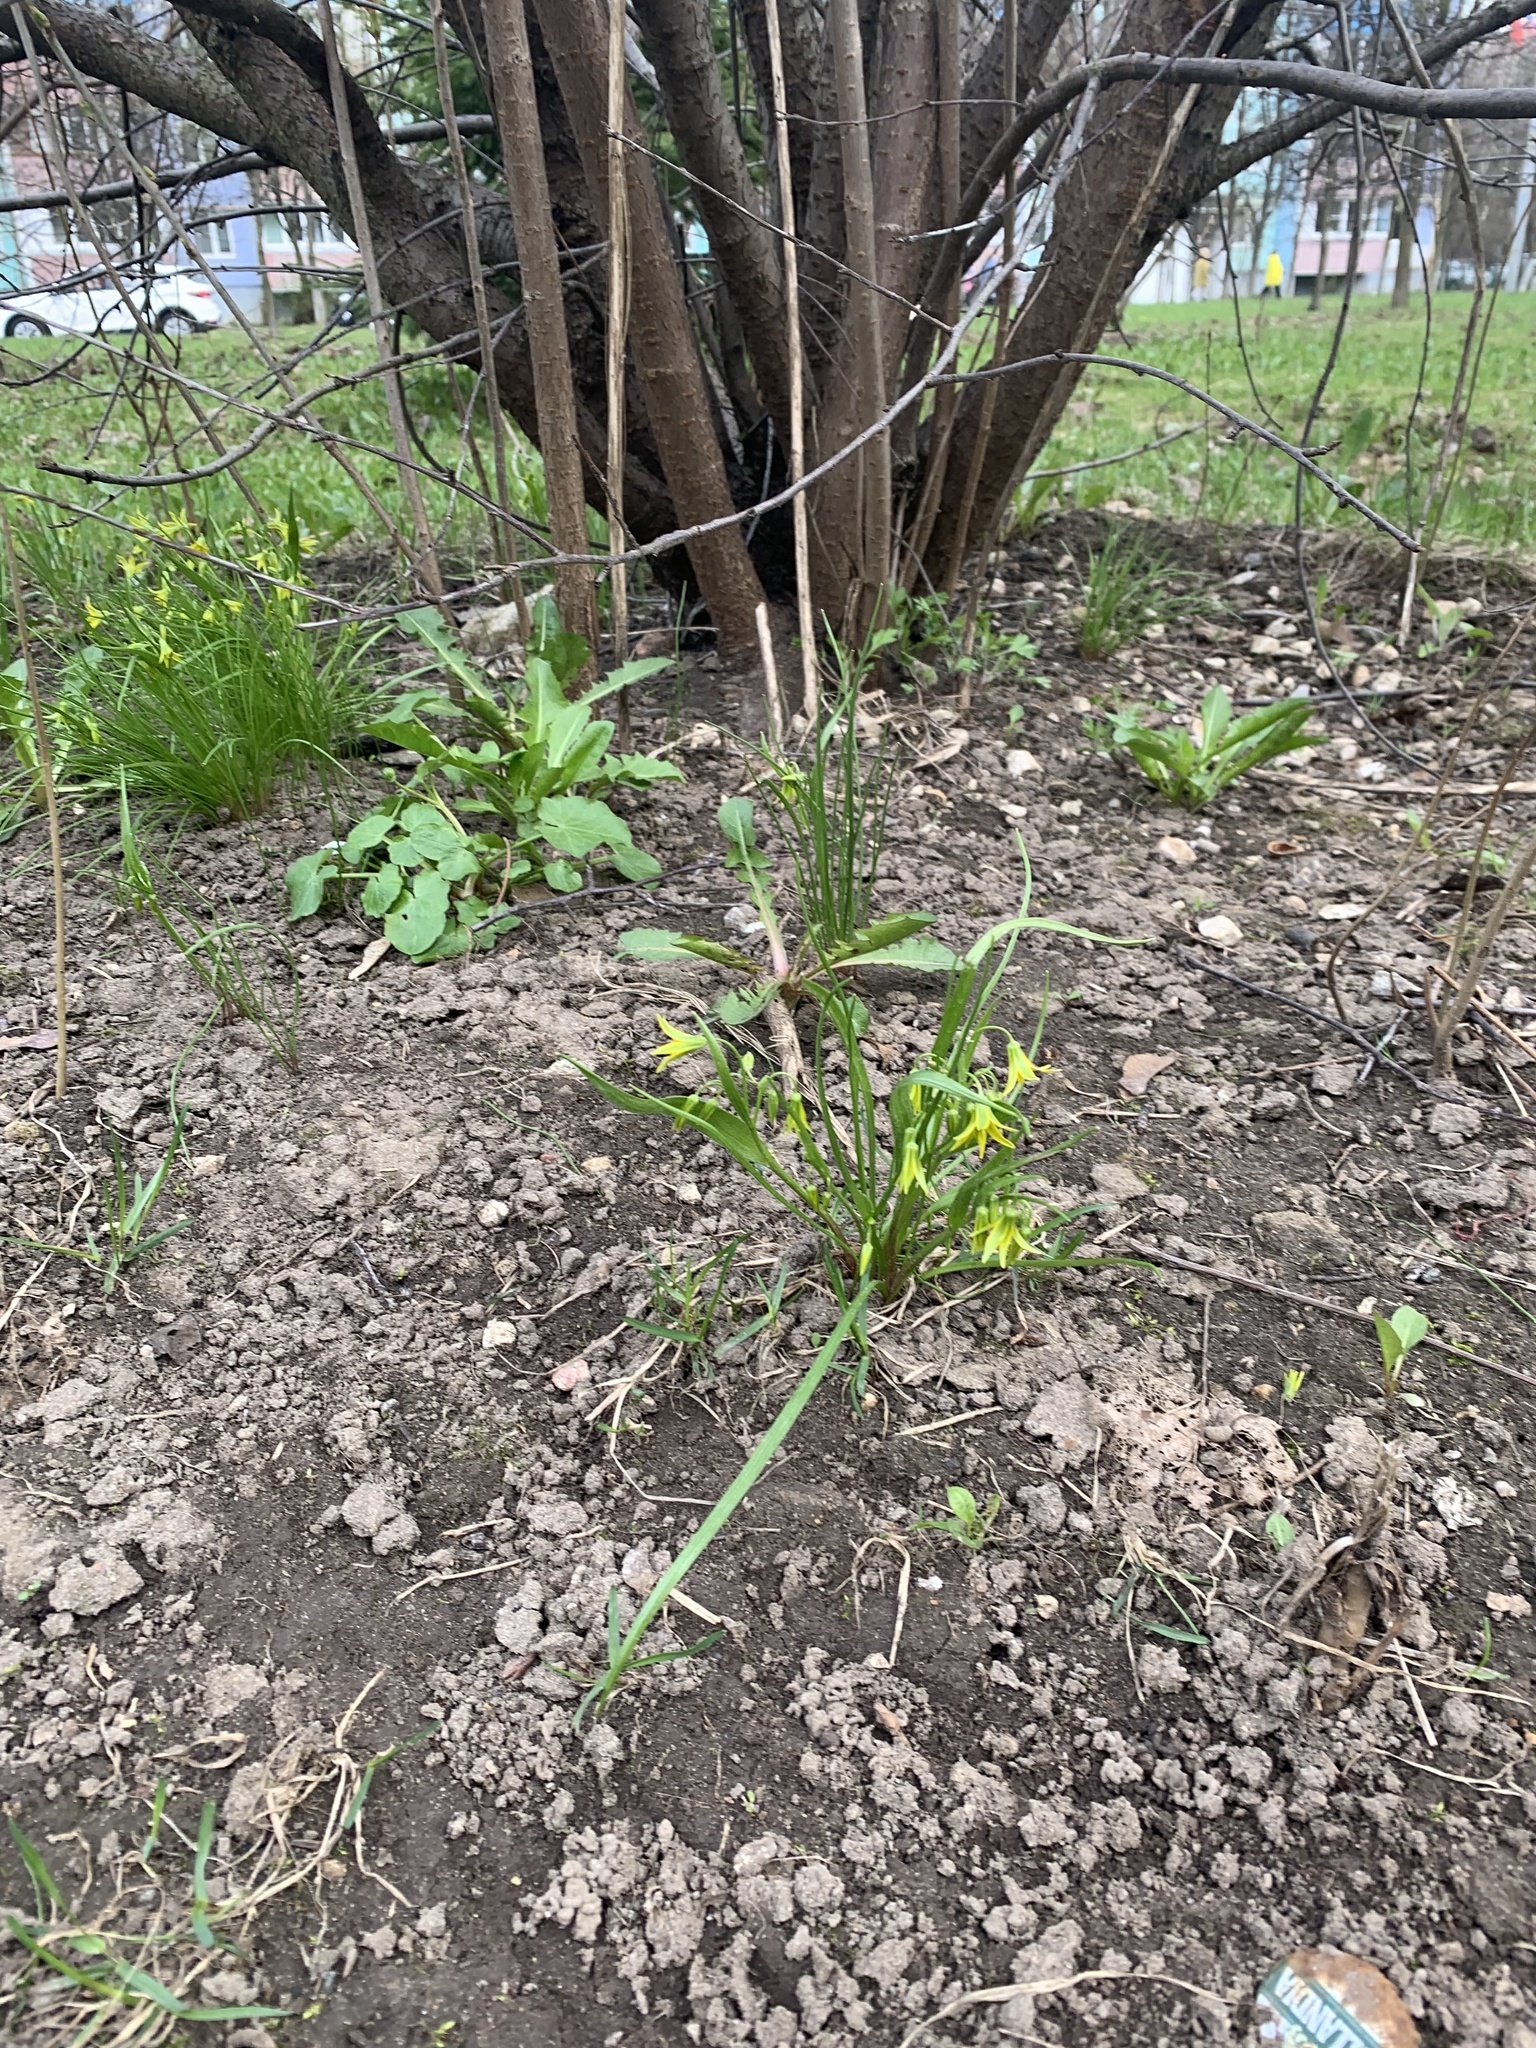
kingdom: Plantae
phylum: Tracheophyta
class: Liliopsida
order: Liliales
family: Liliaceae
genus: Gagea
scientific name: Gagea minima
